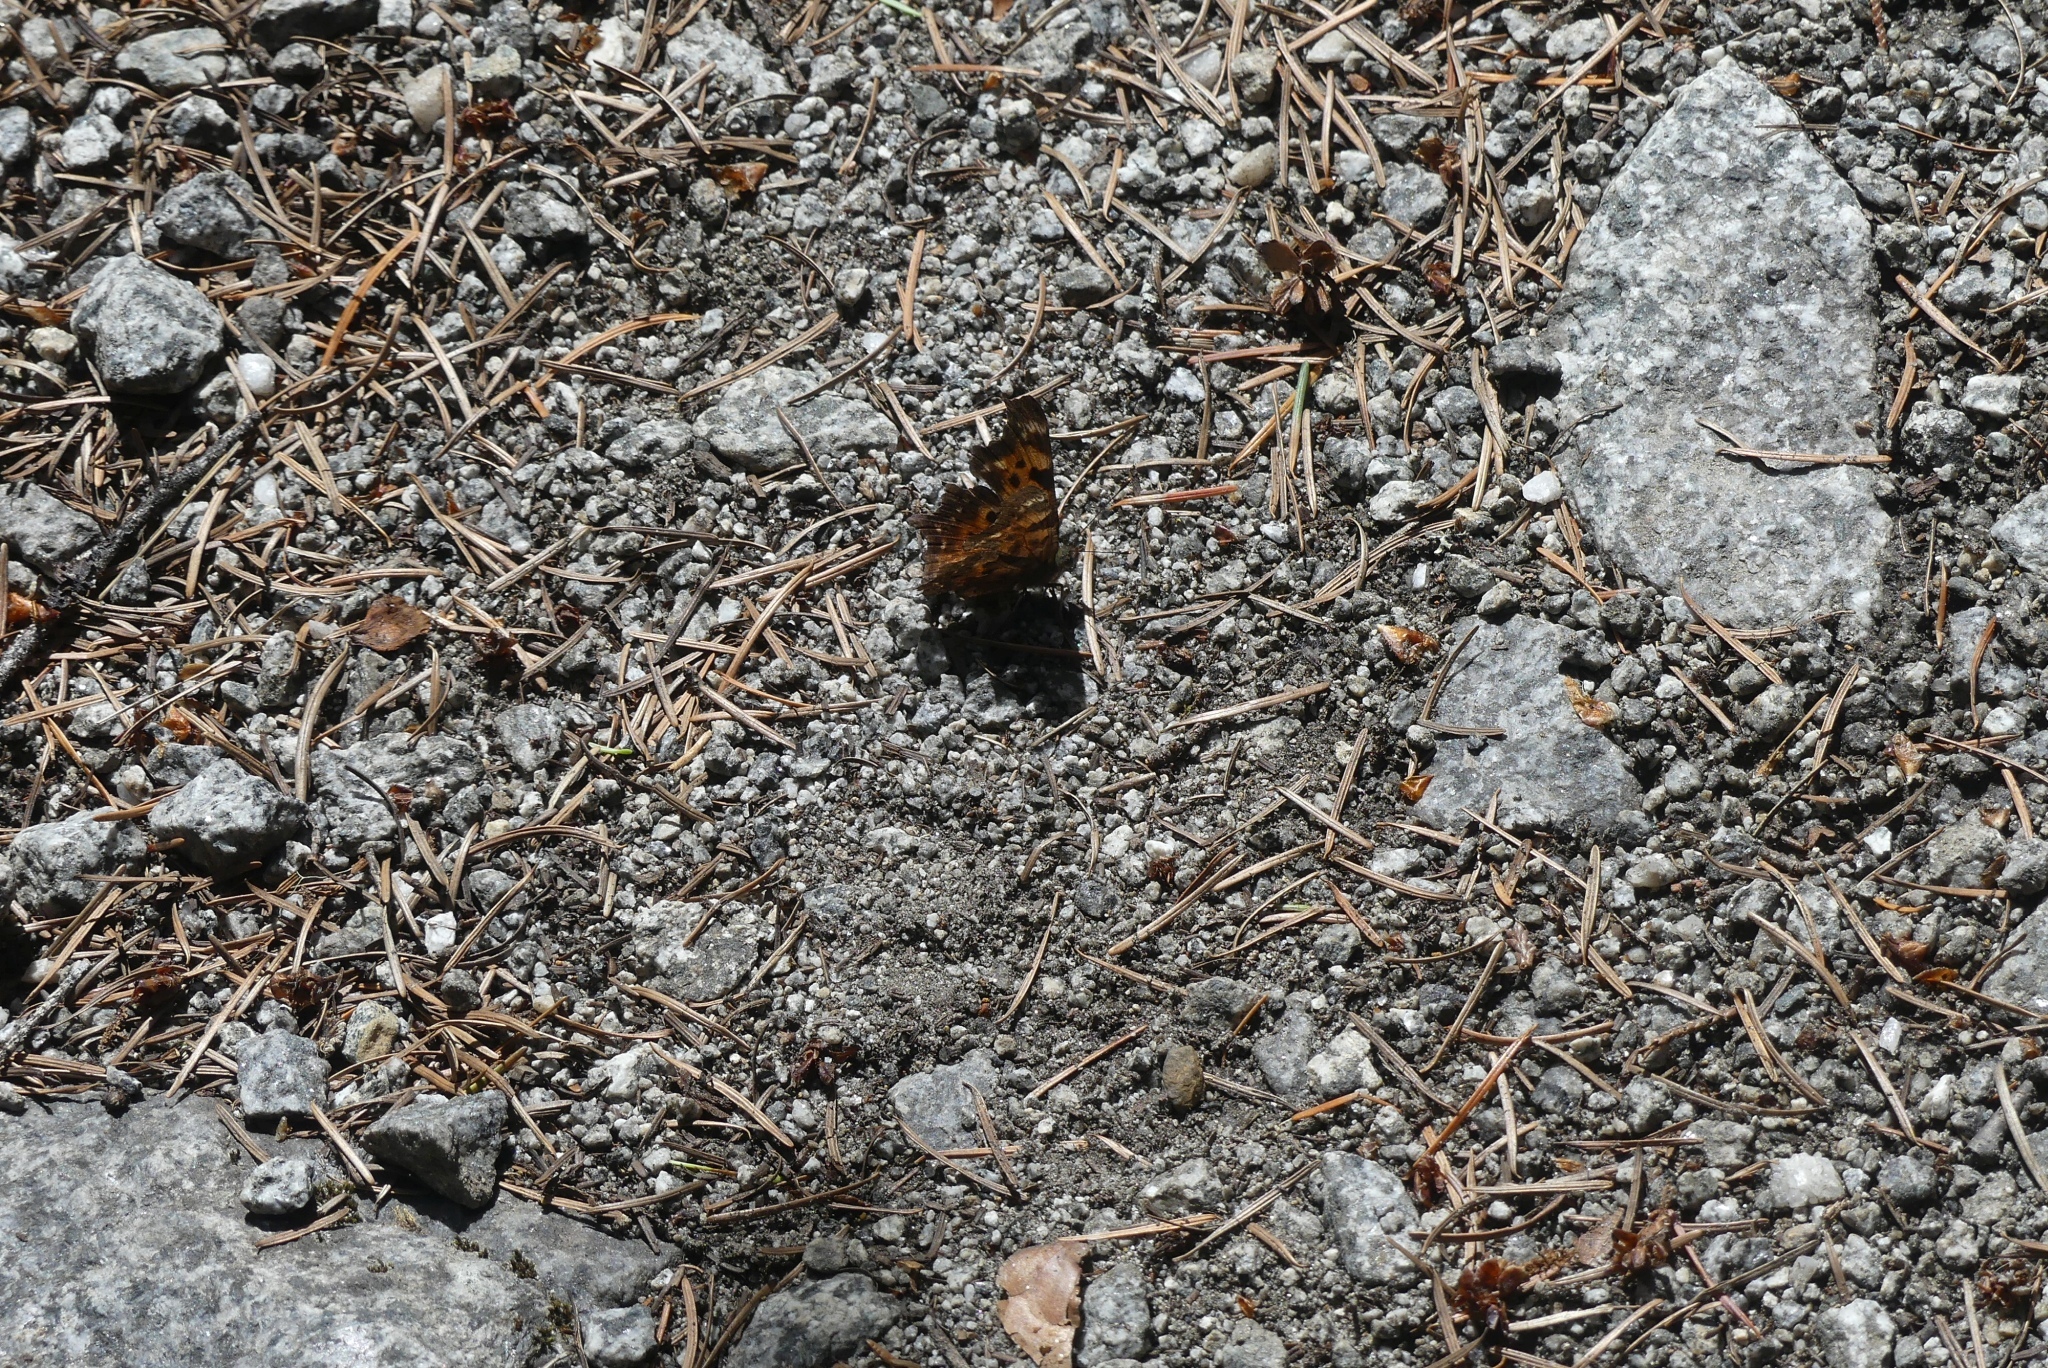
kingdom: Animalia
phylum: Arthropoda
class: Insecta
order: Lepidoptera
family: Nymphalidae
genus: Polygonia
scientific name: Polygonia faunus
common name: Green comma
